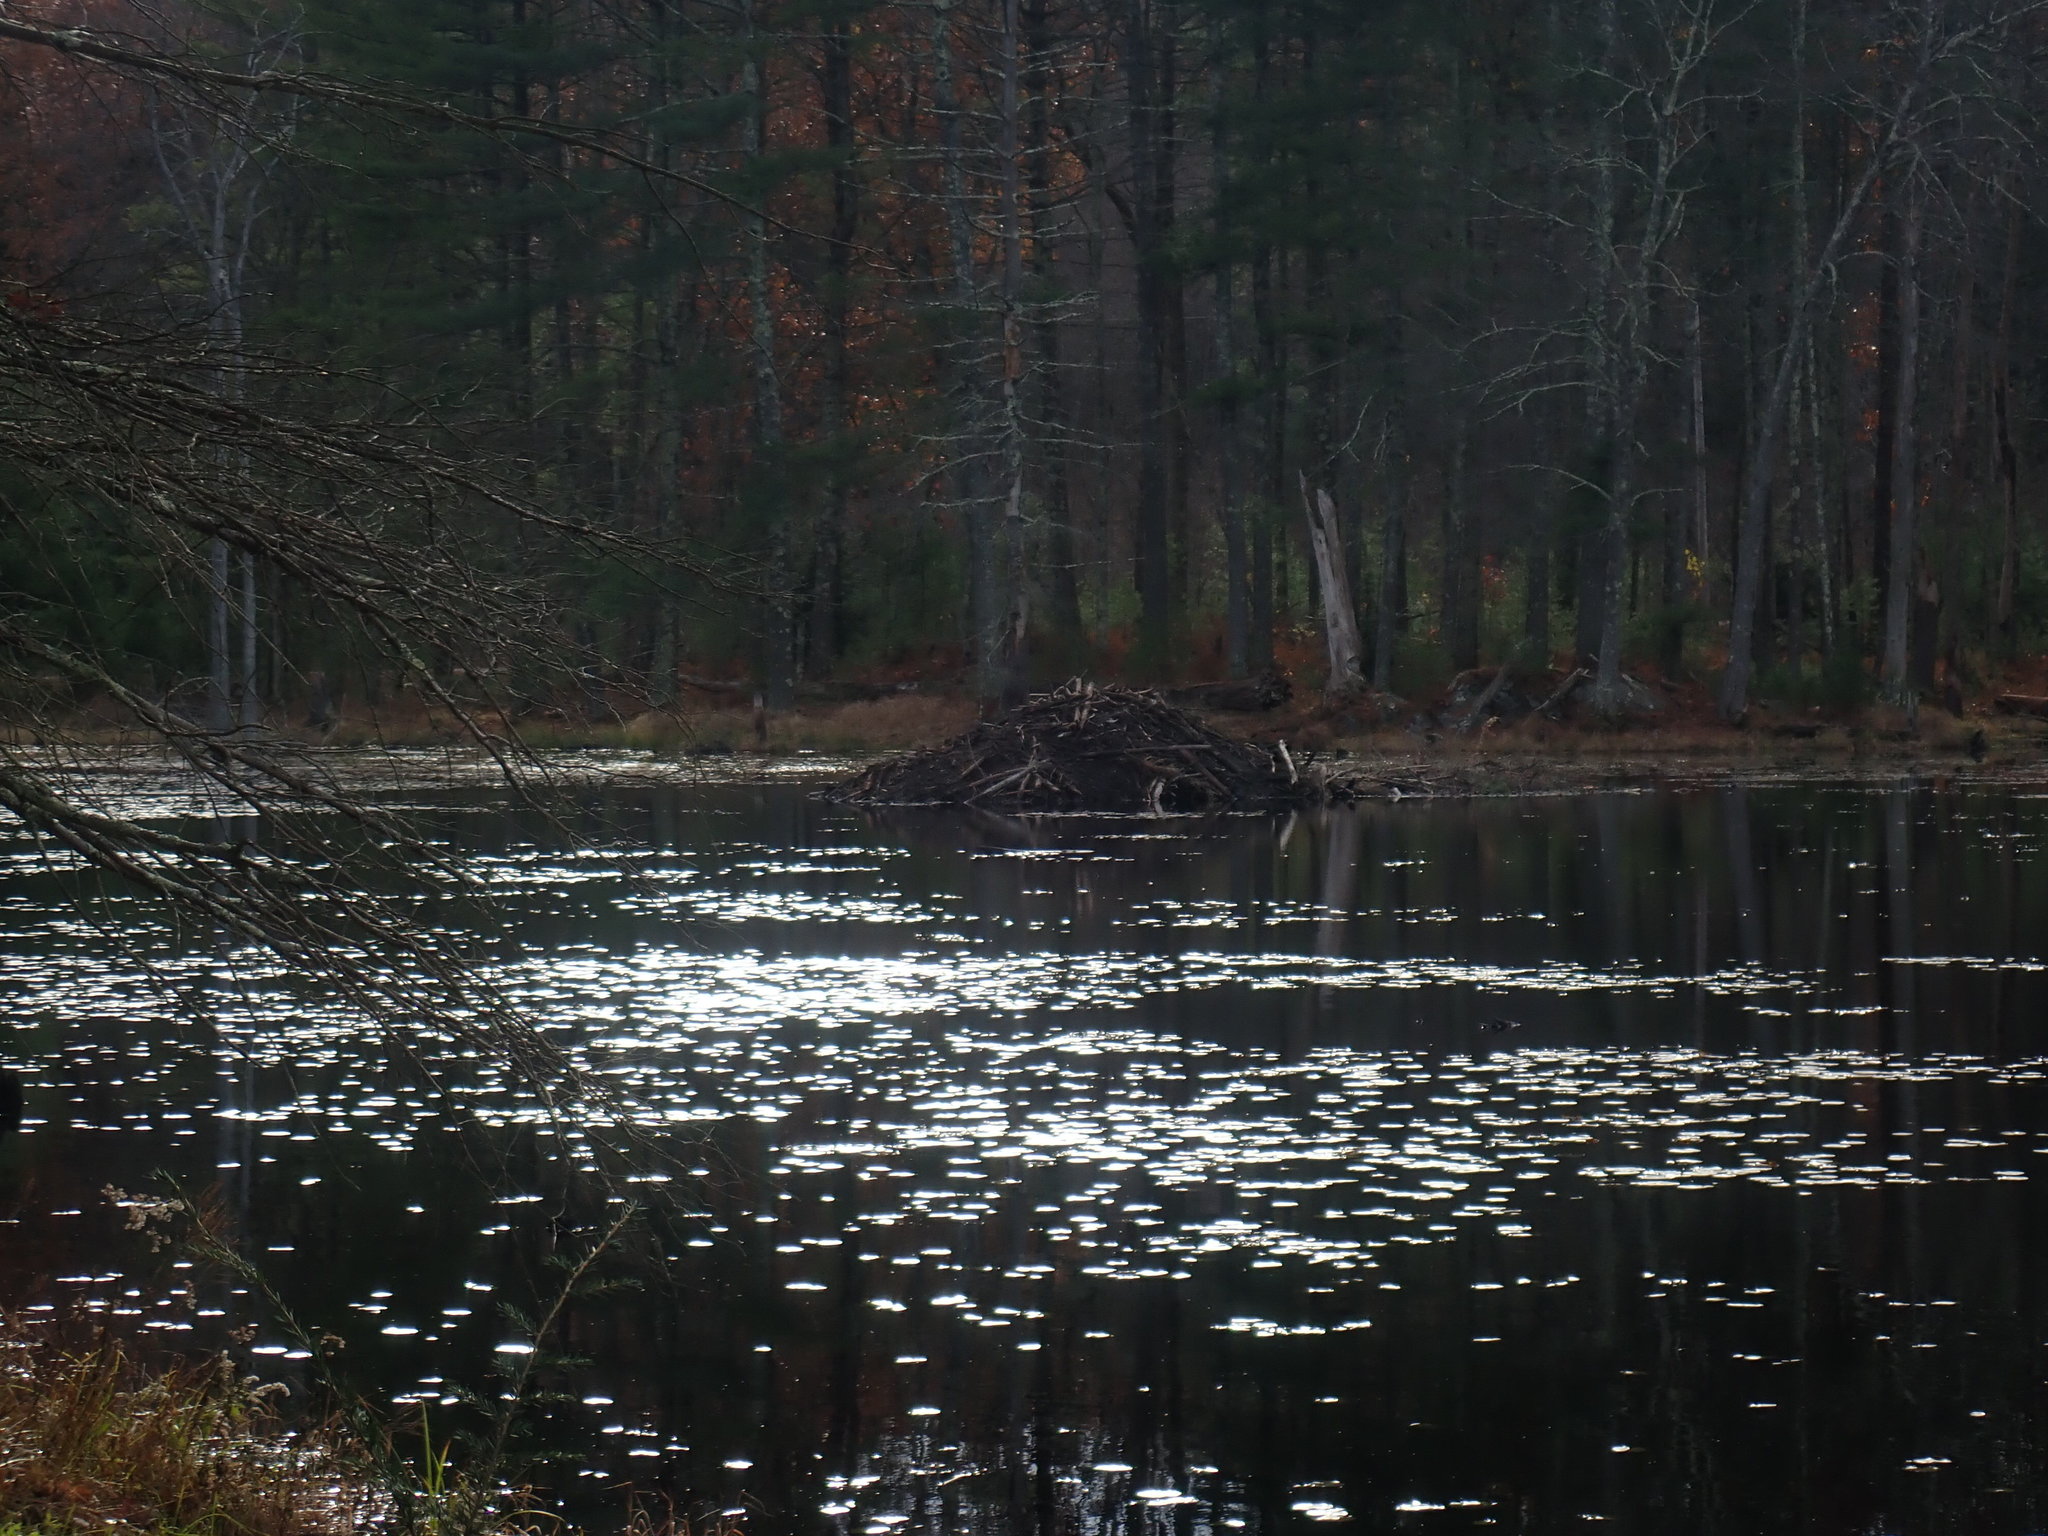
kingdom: Animalia
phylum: Chordata
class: Mammalia
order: Rodentia
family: Castoridae
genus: Castor
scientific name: Castor canadensis
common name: American beaver
